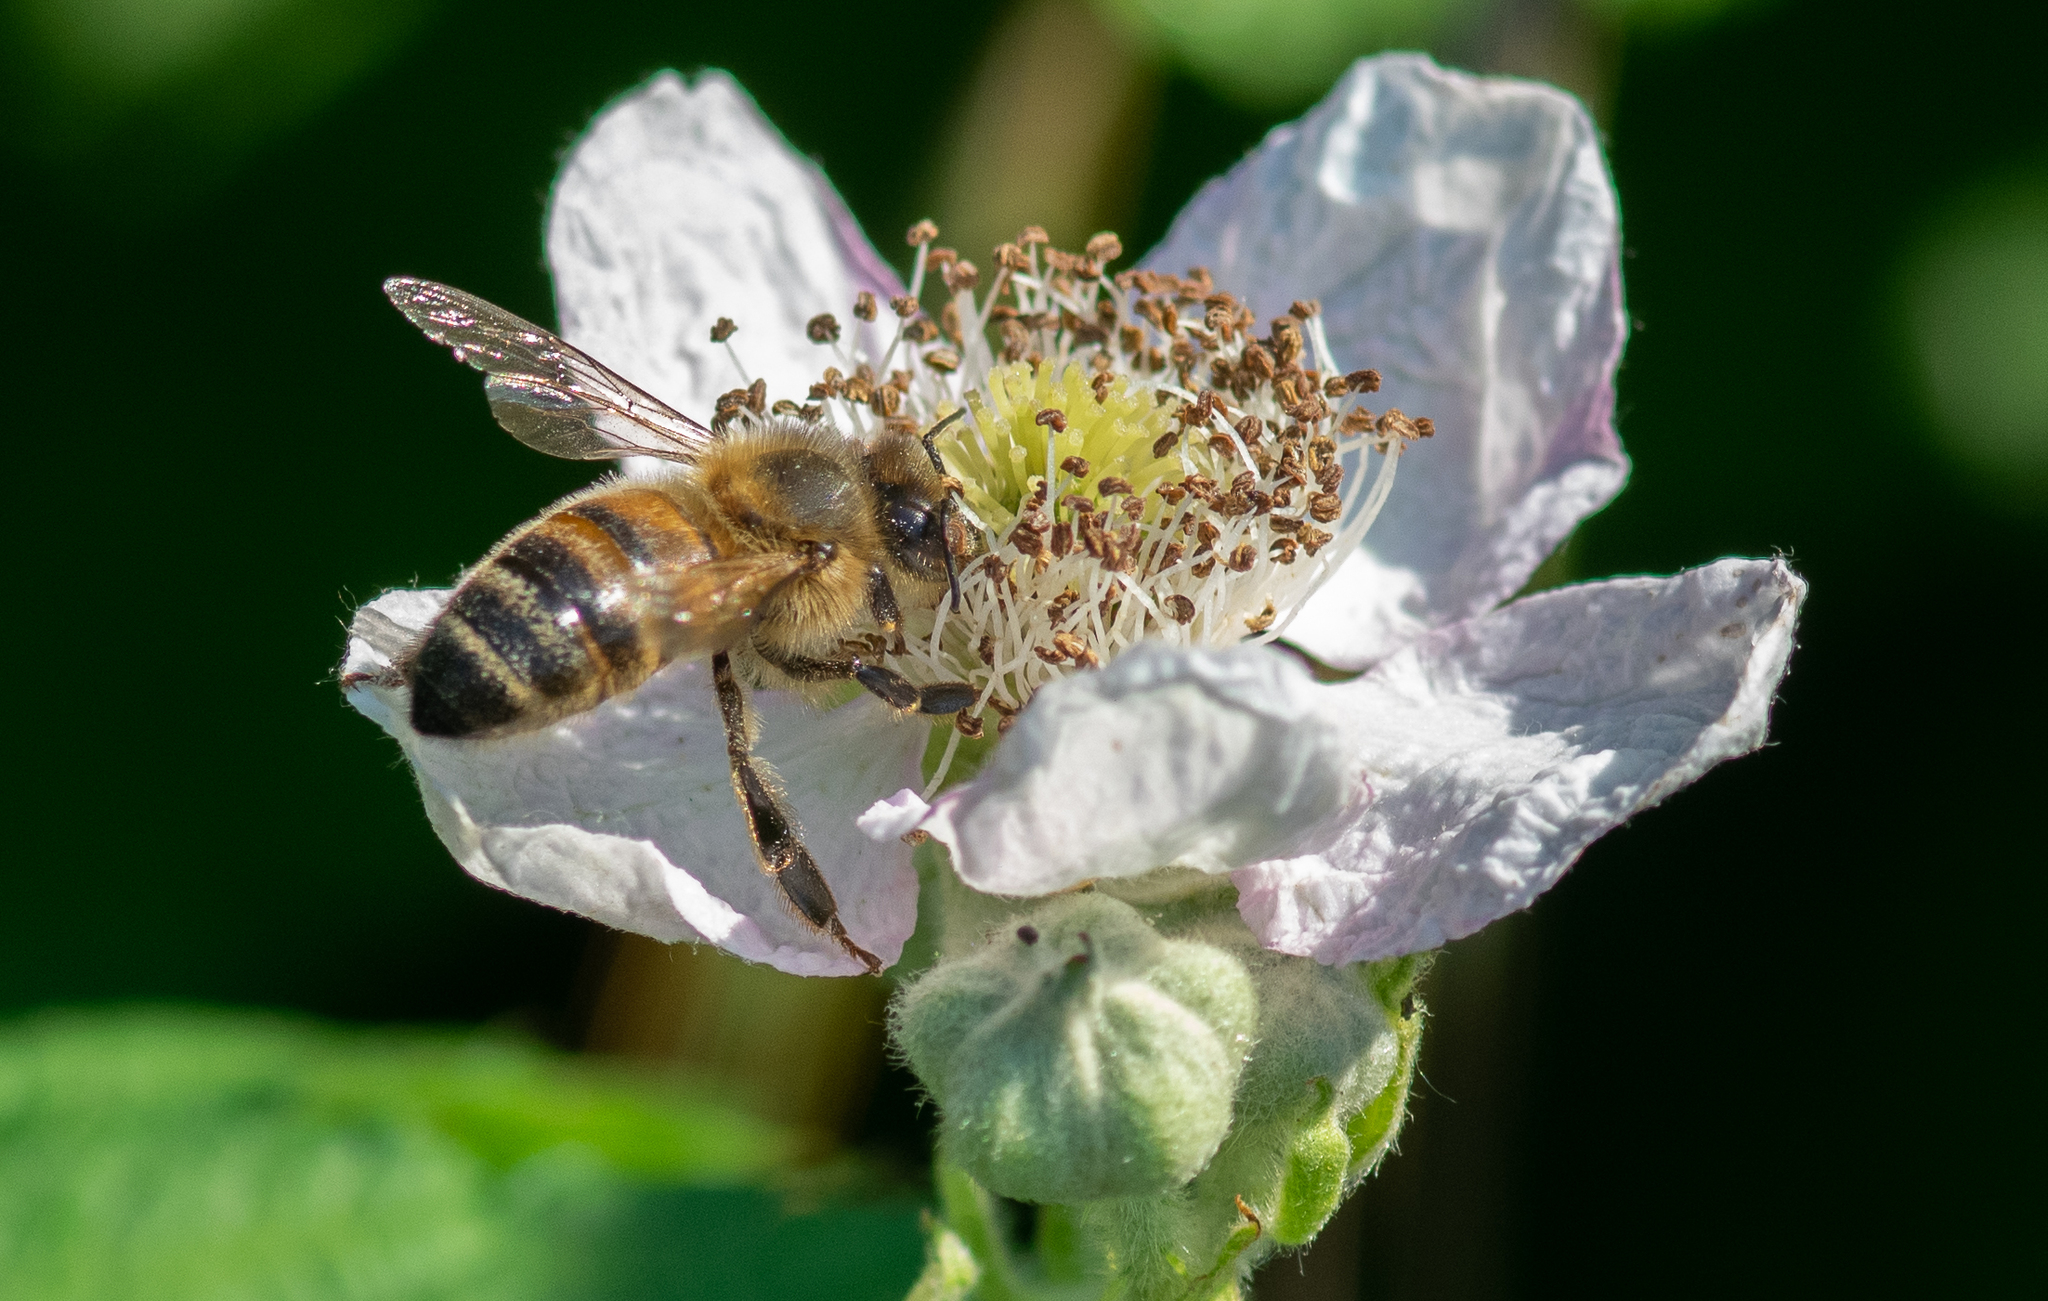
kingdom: Animalia
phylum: Arthropoda
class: Insecta
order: Hymenoptera
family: Apidae
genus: Apis
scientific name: Apis mellifera
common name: Honey bee
